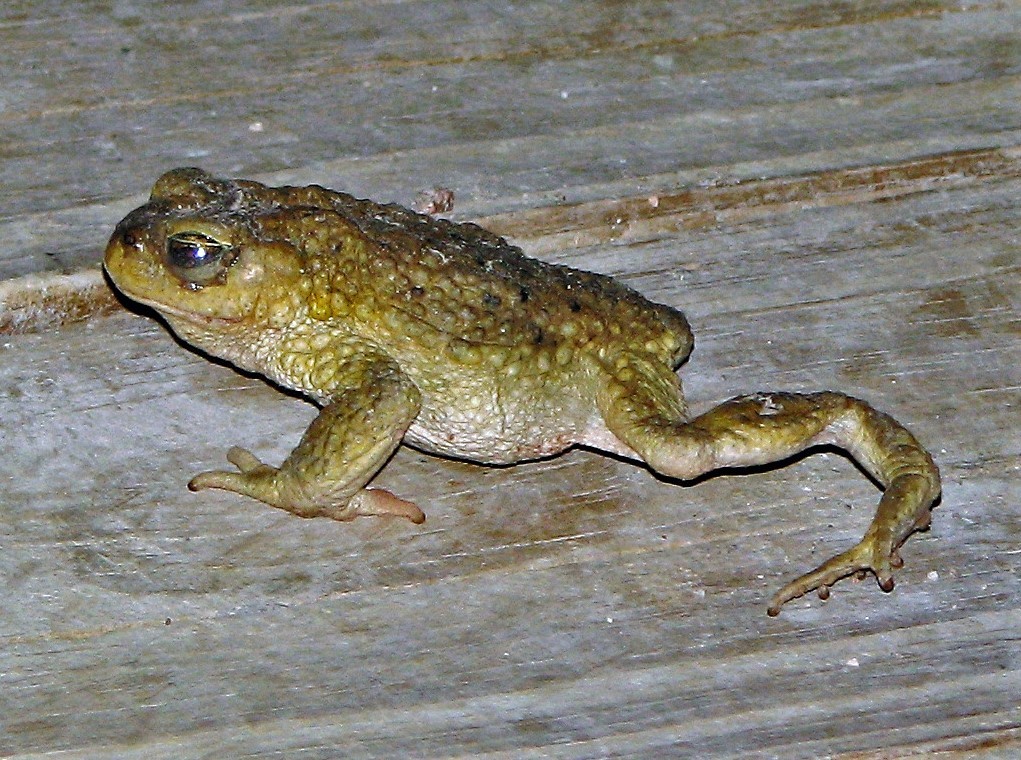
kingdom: Animalia
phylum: Chordata
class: Amphibia
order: Anura
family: Bufonidae
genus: Rhinella
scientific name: Rhinella spinulosa
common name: Warty toad
